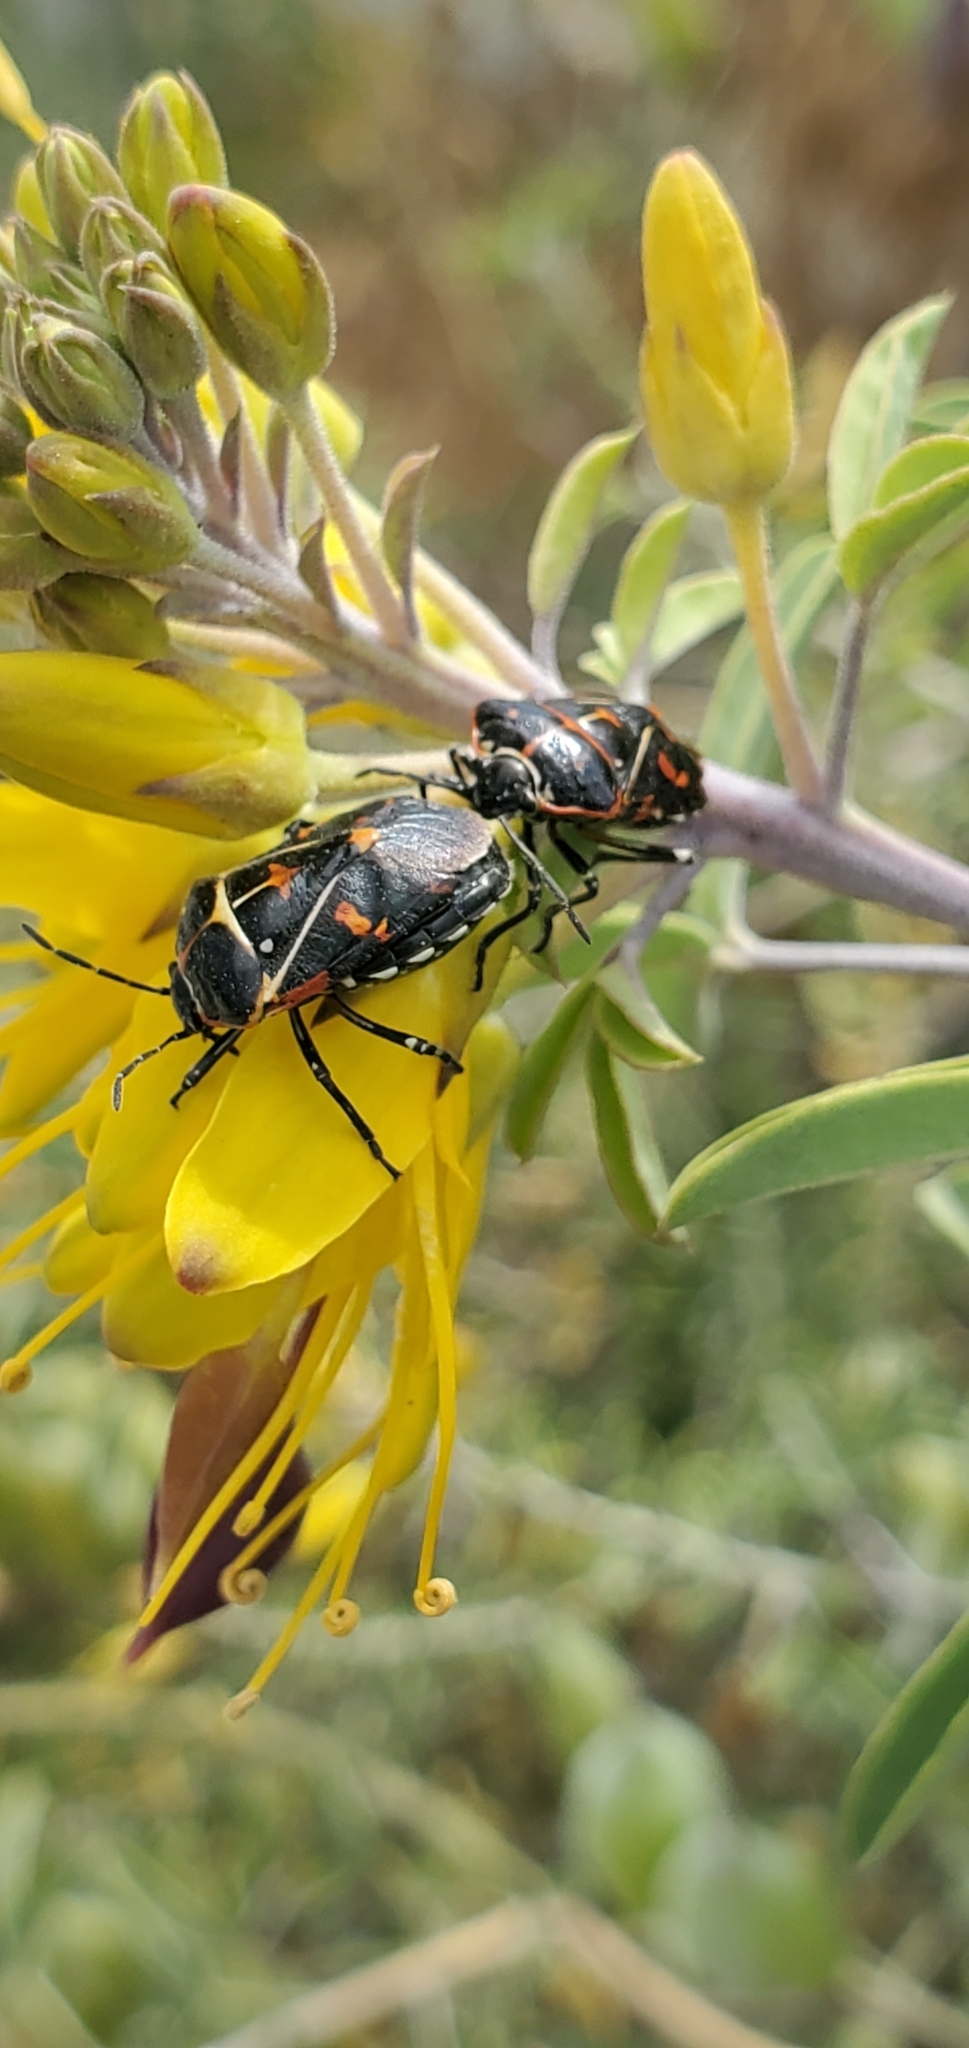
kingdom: Animalia
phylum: Arthropoda
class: Insecta
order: Hemiptera
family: Pentatomidae
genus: Murgantia
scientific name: Murgantia histrionica
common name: Harlequin bug
